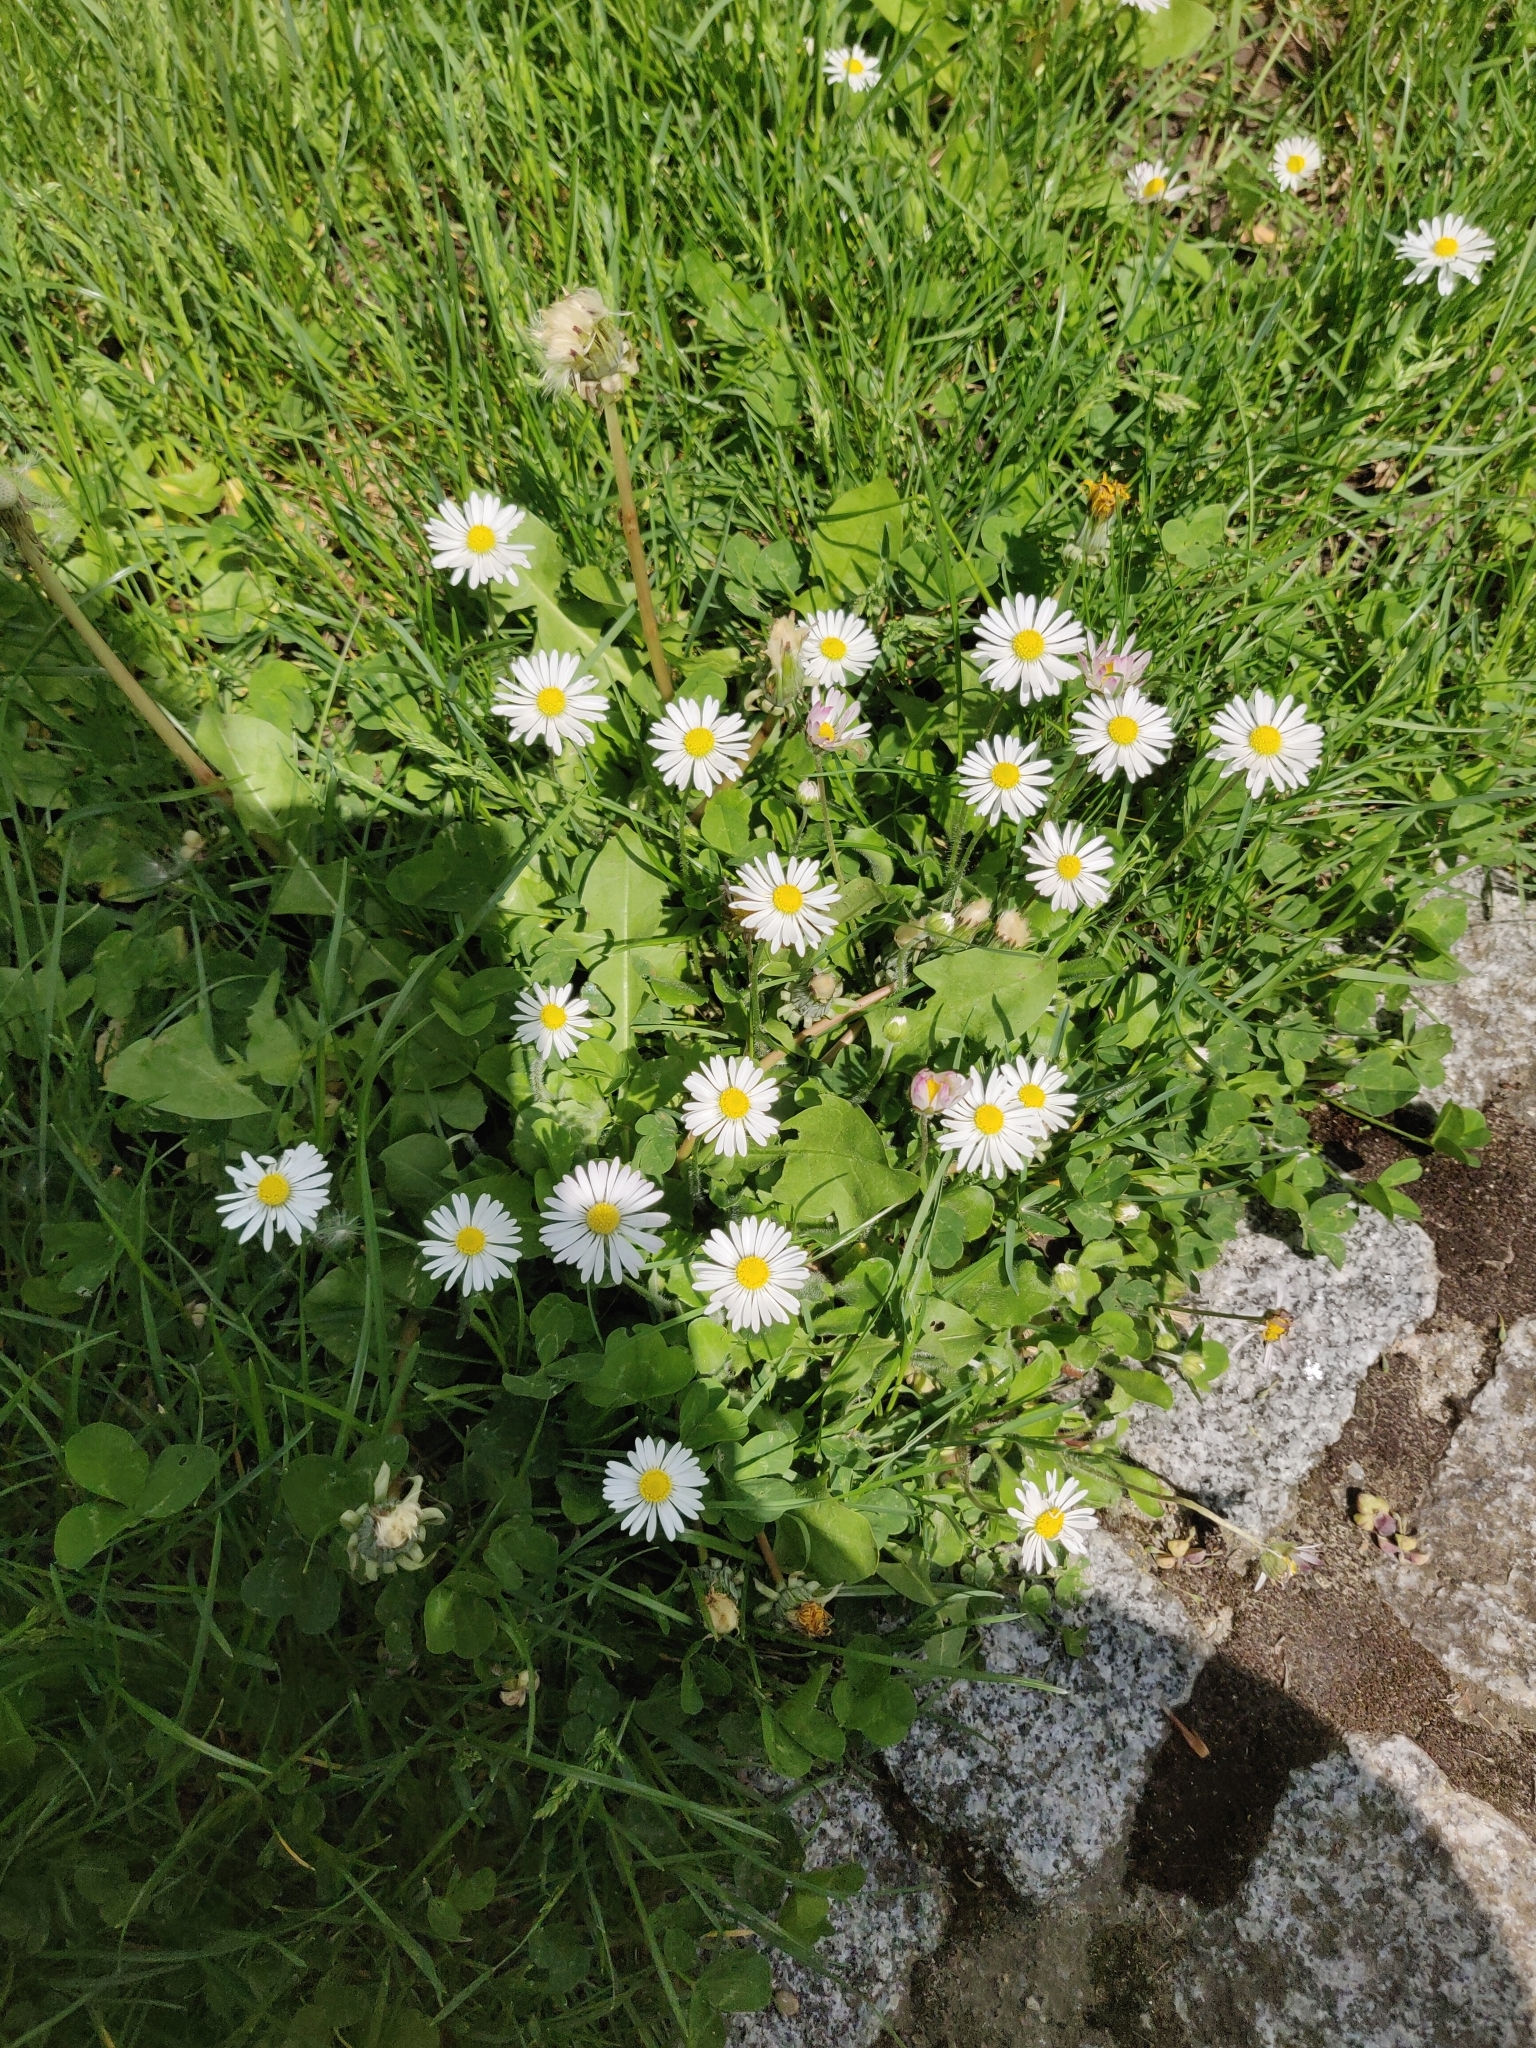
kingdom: Plantae
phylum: Tracheophyta
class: Magnoliopsida
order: Asterales
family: Asteraceae
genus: Bellis
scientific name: Bellis perennis
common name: Lawndaisy
